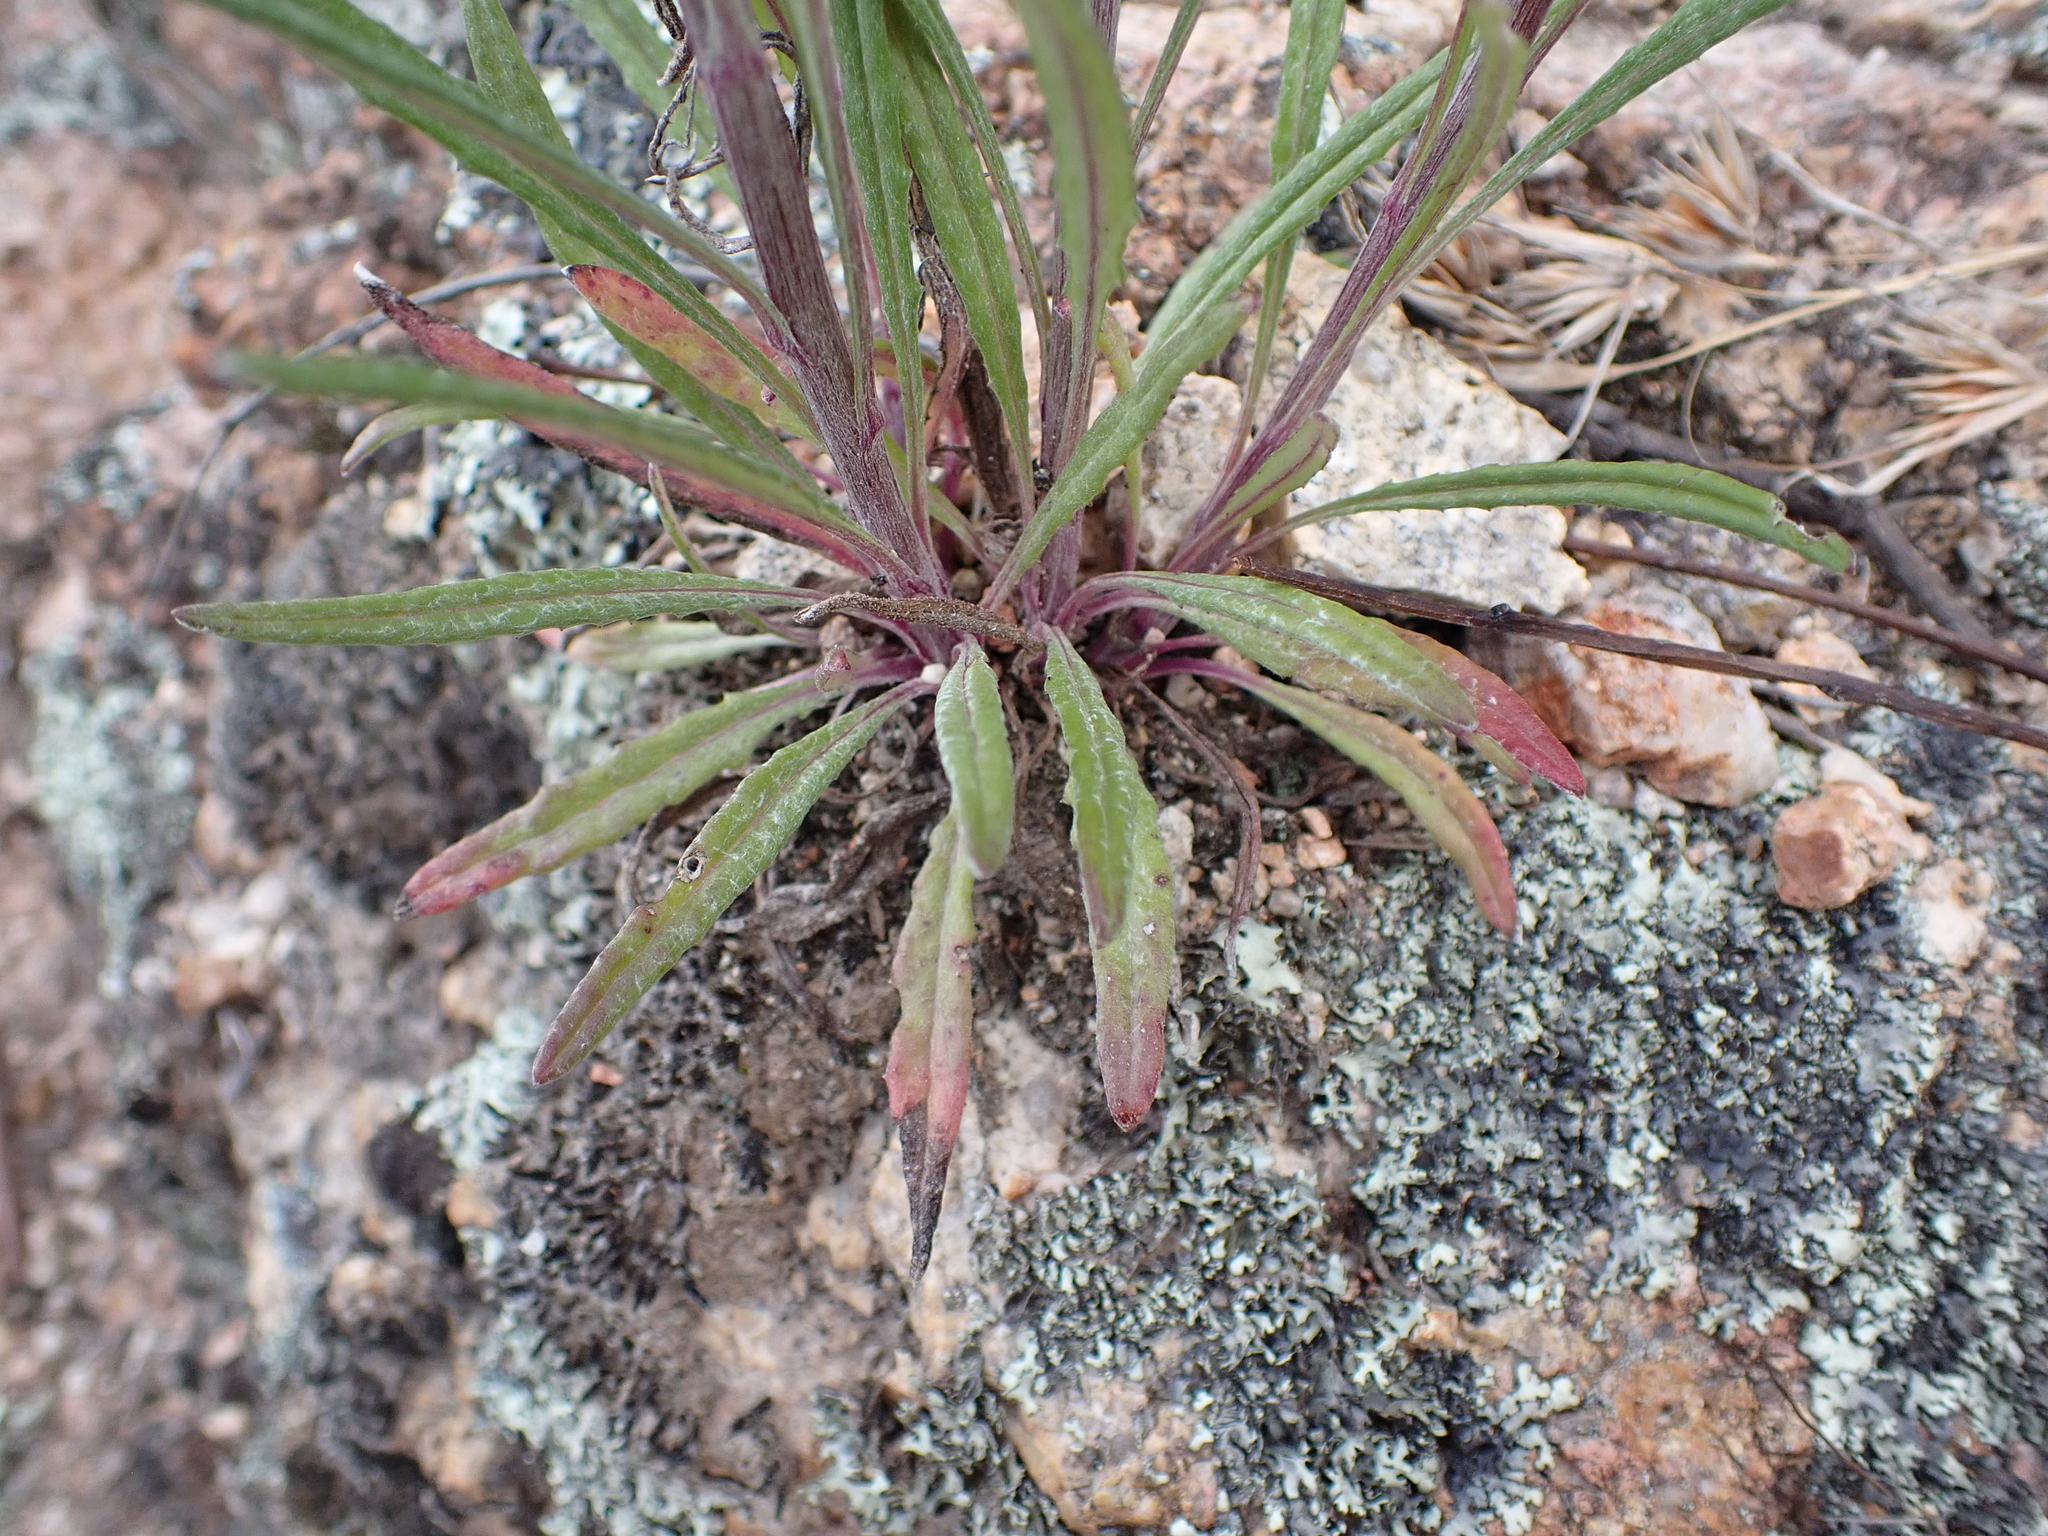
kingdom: Plantae
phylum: Tracheophyta
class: Magnoliopsida
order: Asterales
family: Asteraceae
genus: Senecio
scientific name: Senecio quadridentatus
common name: Cotton fireweed
